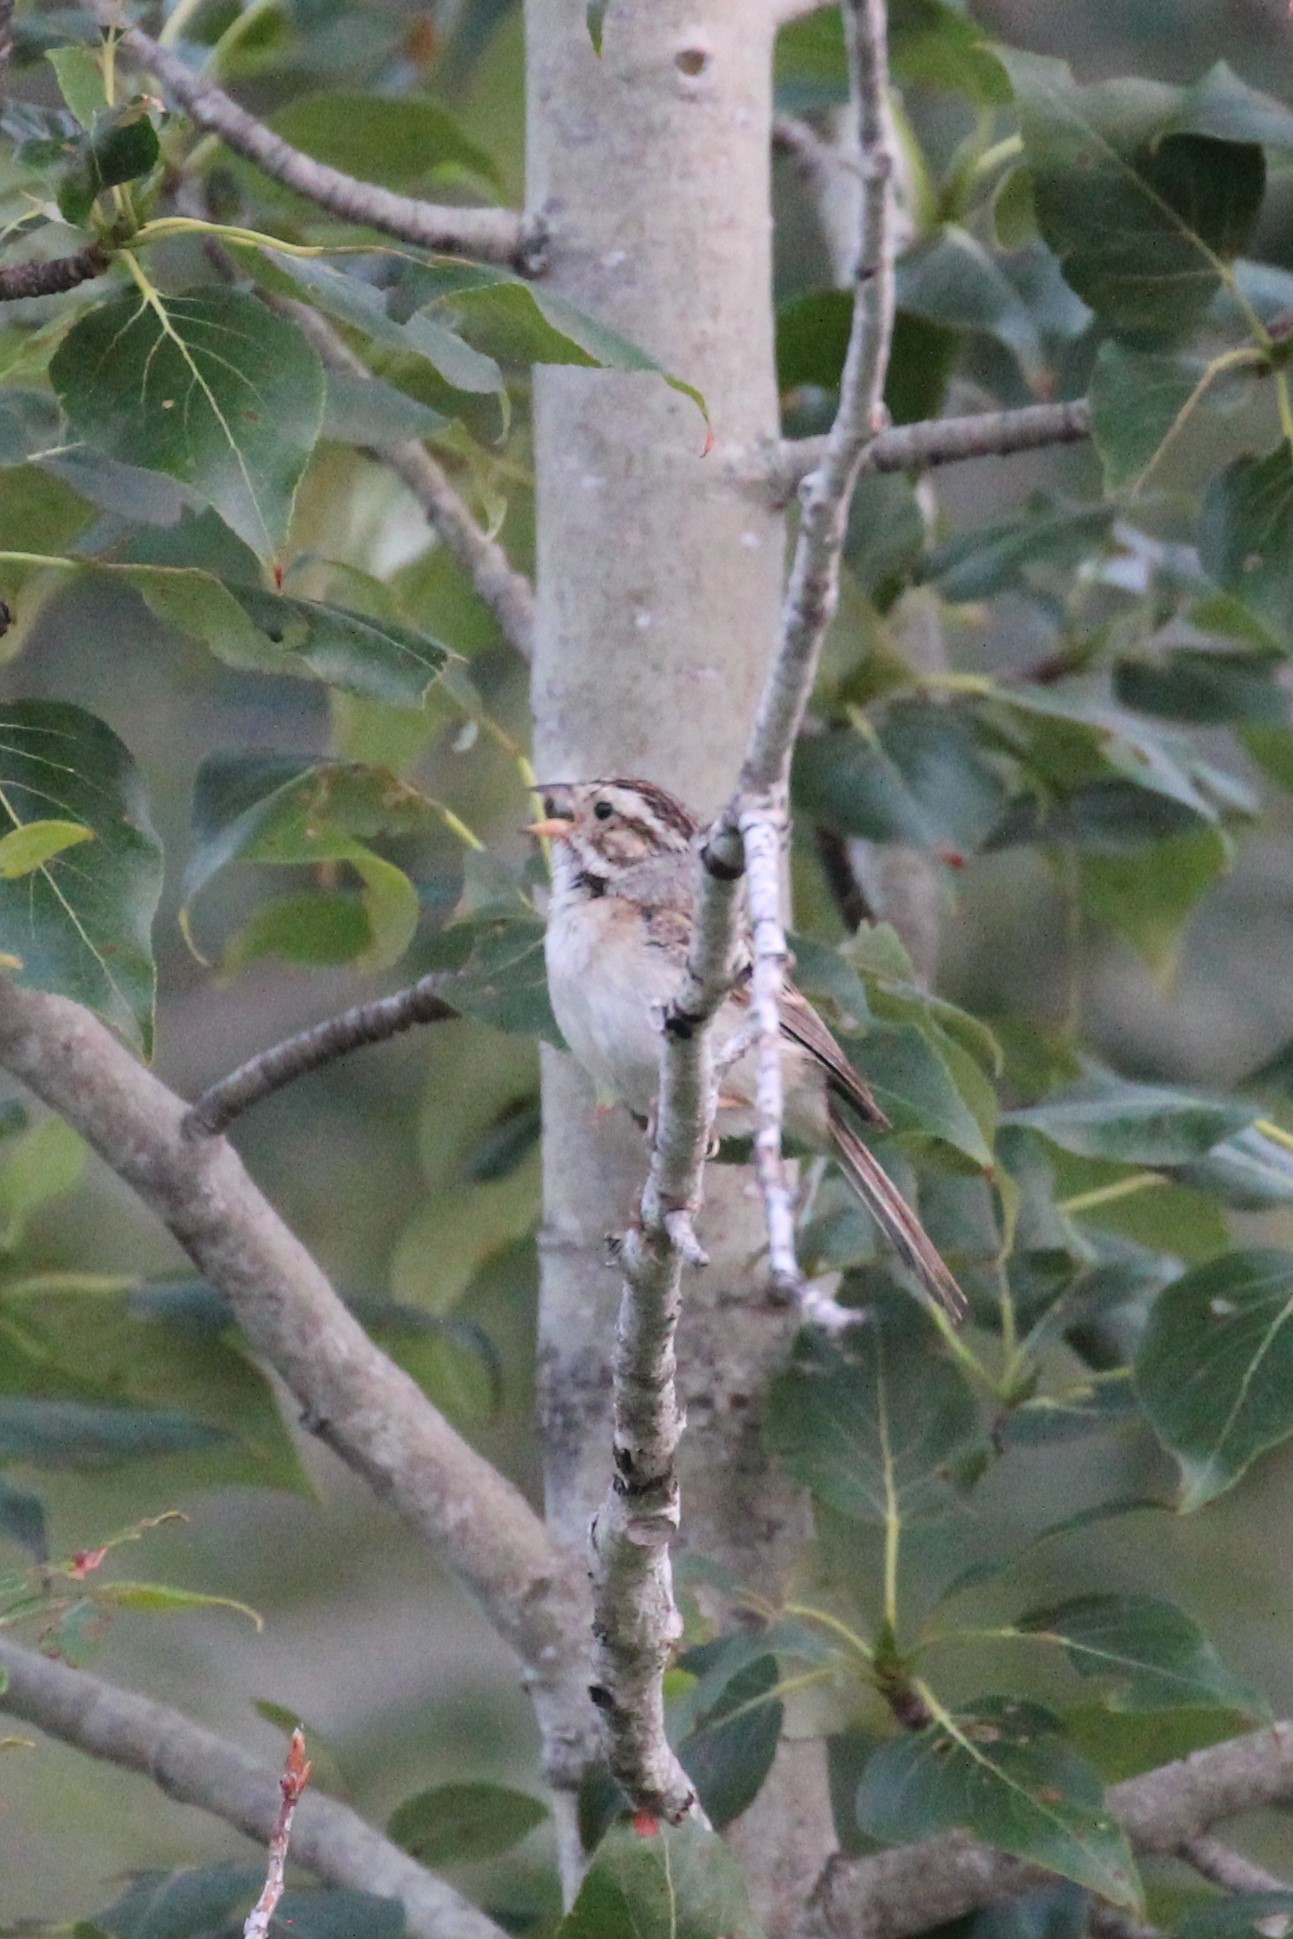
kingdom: Animalia
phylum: Chordata
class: Aves
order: Passeriformes
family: Passerellidae
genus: Spizella
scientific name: Spizella pallida
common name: Clay-colored sparrow
